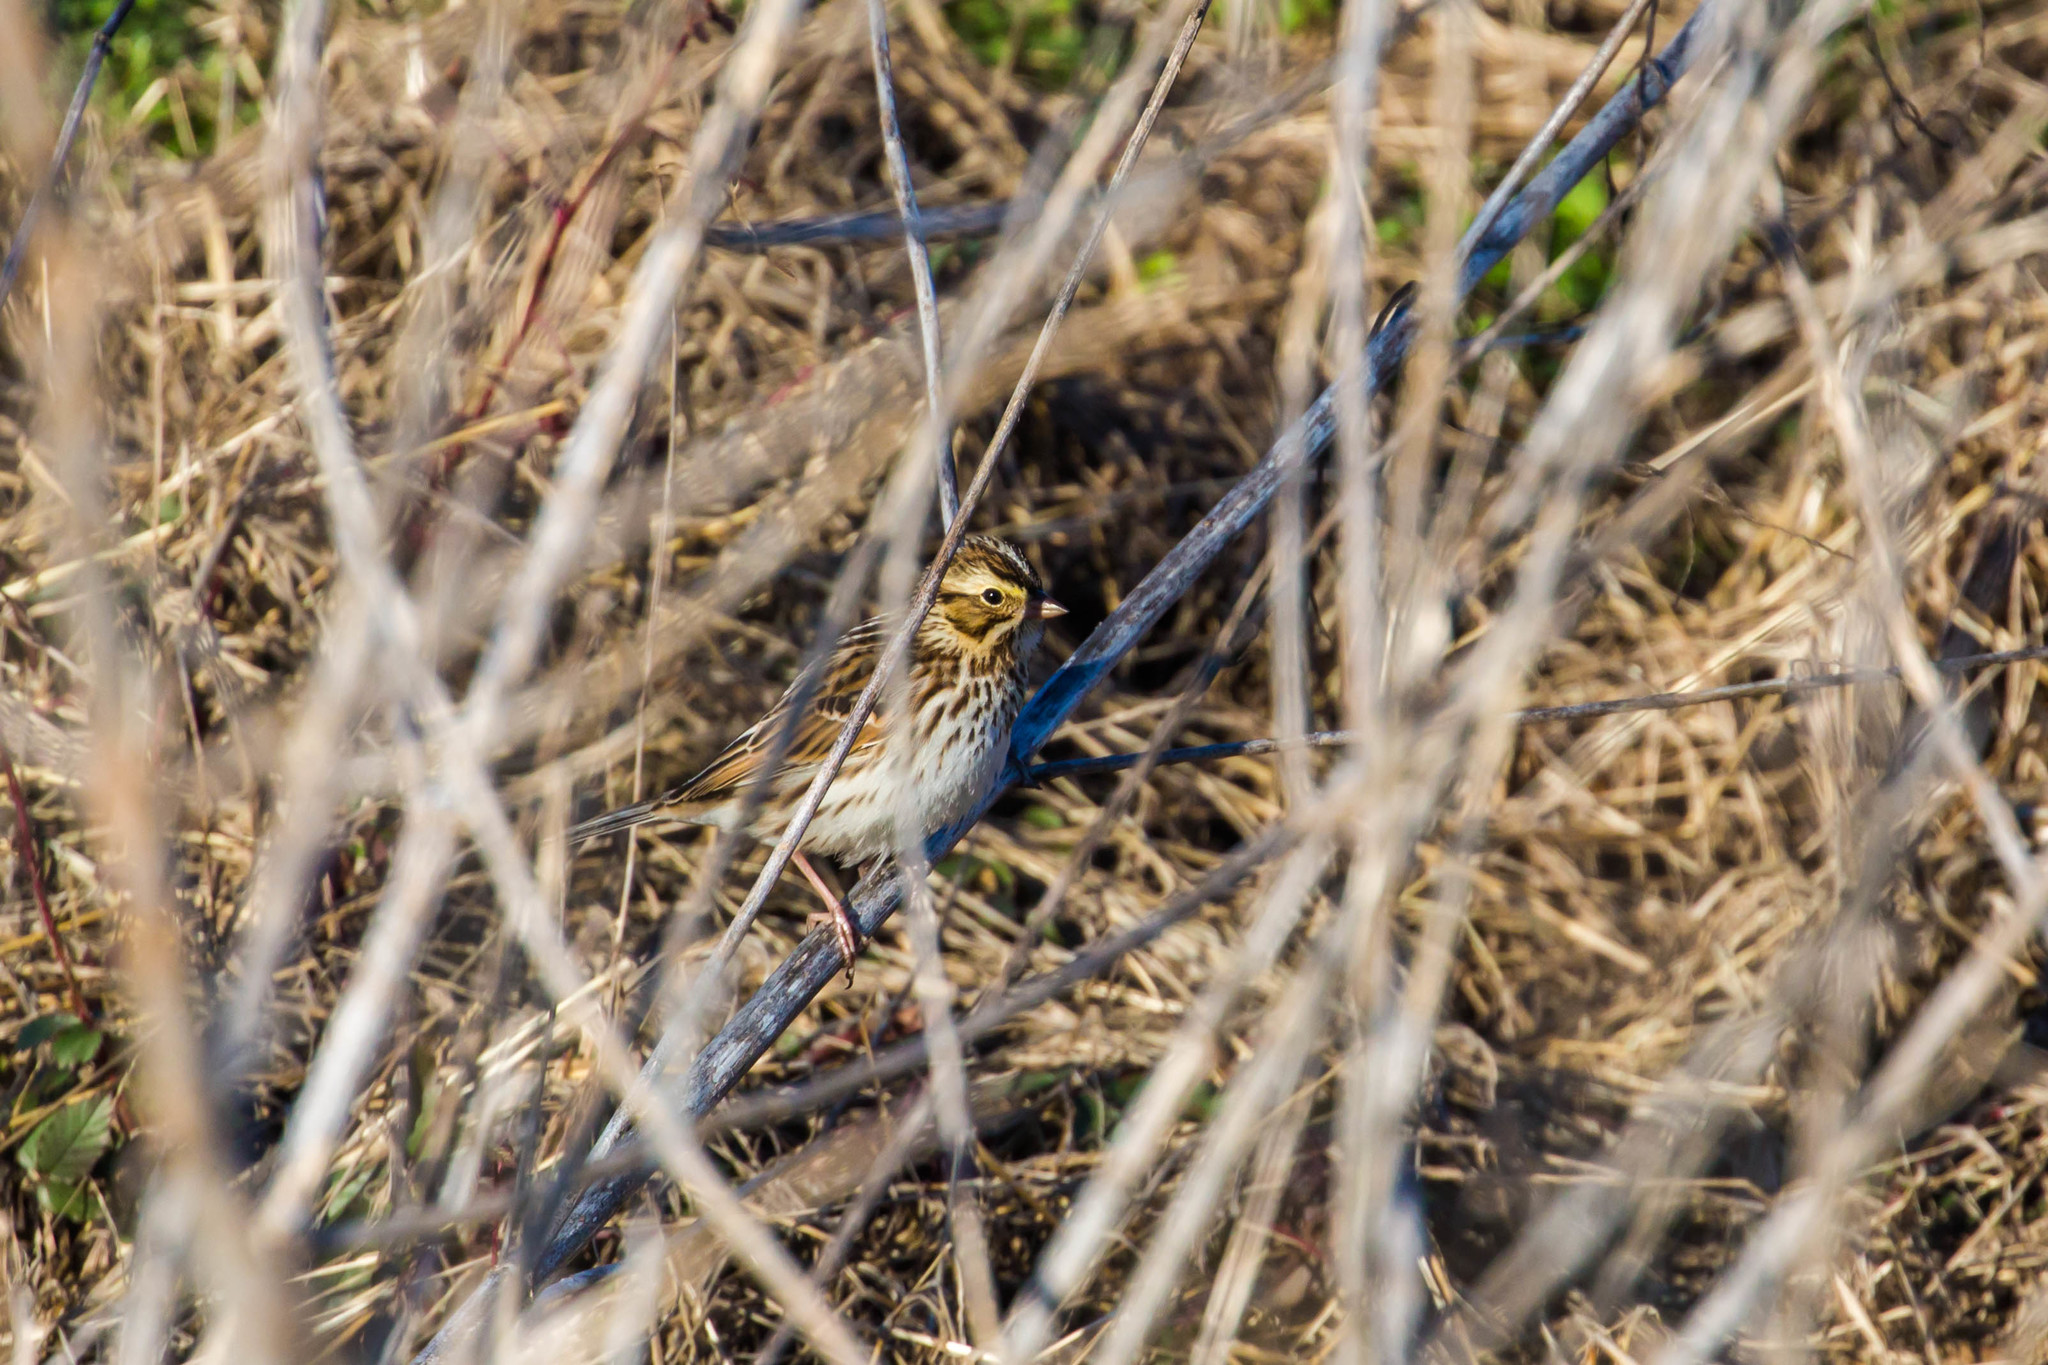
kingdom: Animalia
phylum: Chordata
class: Aves
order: Passeriformes
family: Passerellidae
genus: Passerculus
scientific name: Passerculus sandwichensis
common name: Savannah sparrow
